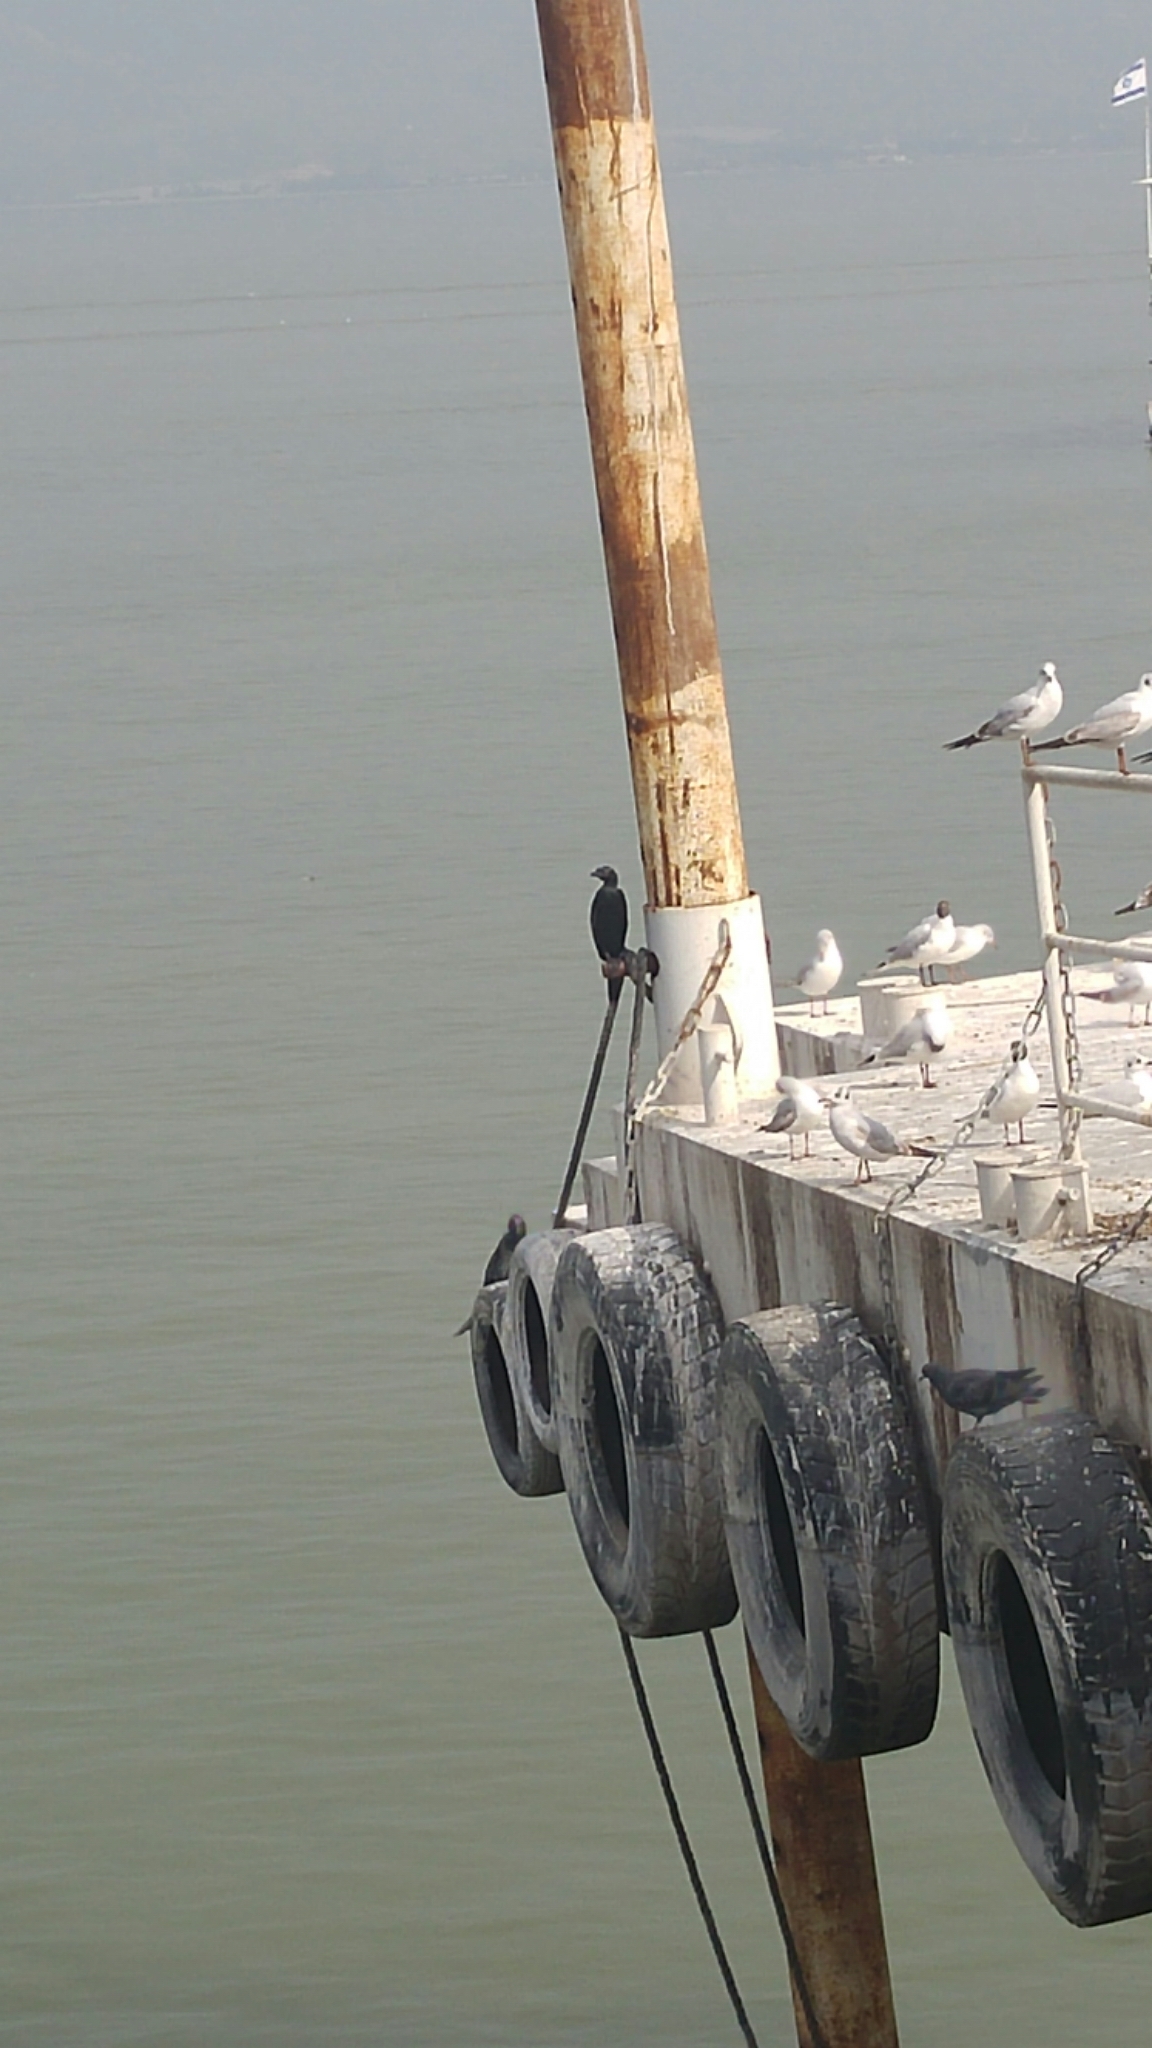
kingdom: Animalia
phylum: Chordata
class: Aves
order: Suliformes
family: Phalacrocoracidae
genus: Microcarbo
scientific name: Microcarbo pygmaeus
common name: Pygmy cormorant
